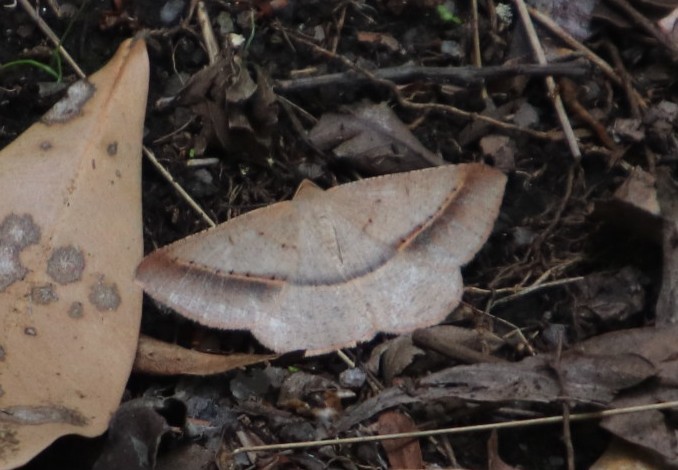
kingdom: Animalia
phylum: Arthropoda
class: Insecta
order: Lepidoptera
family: Geometridae
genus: Conolophia
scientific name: Conolophia conscitaria
